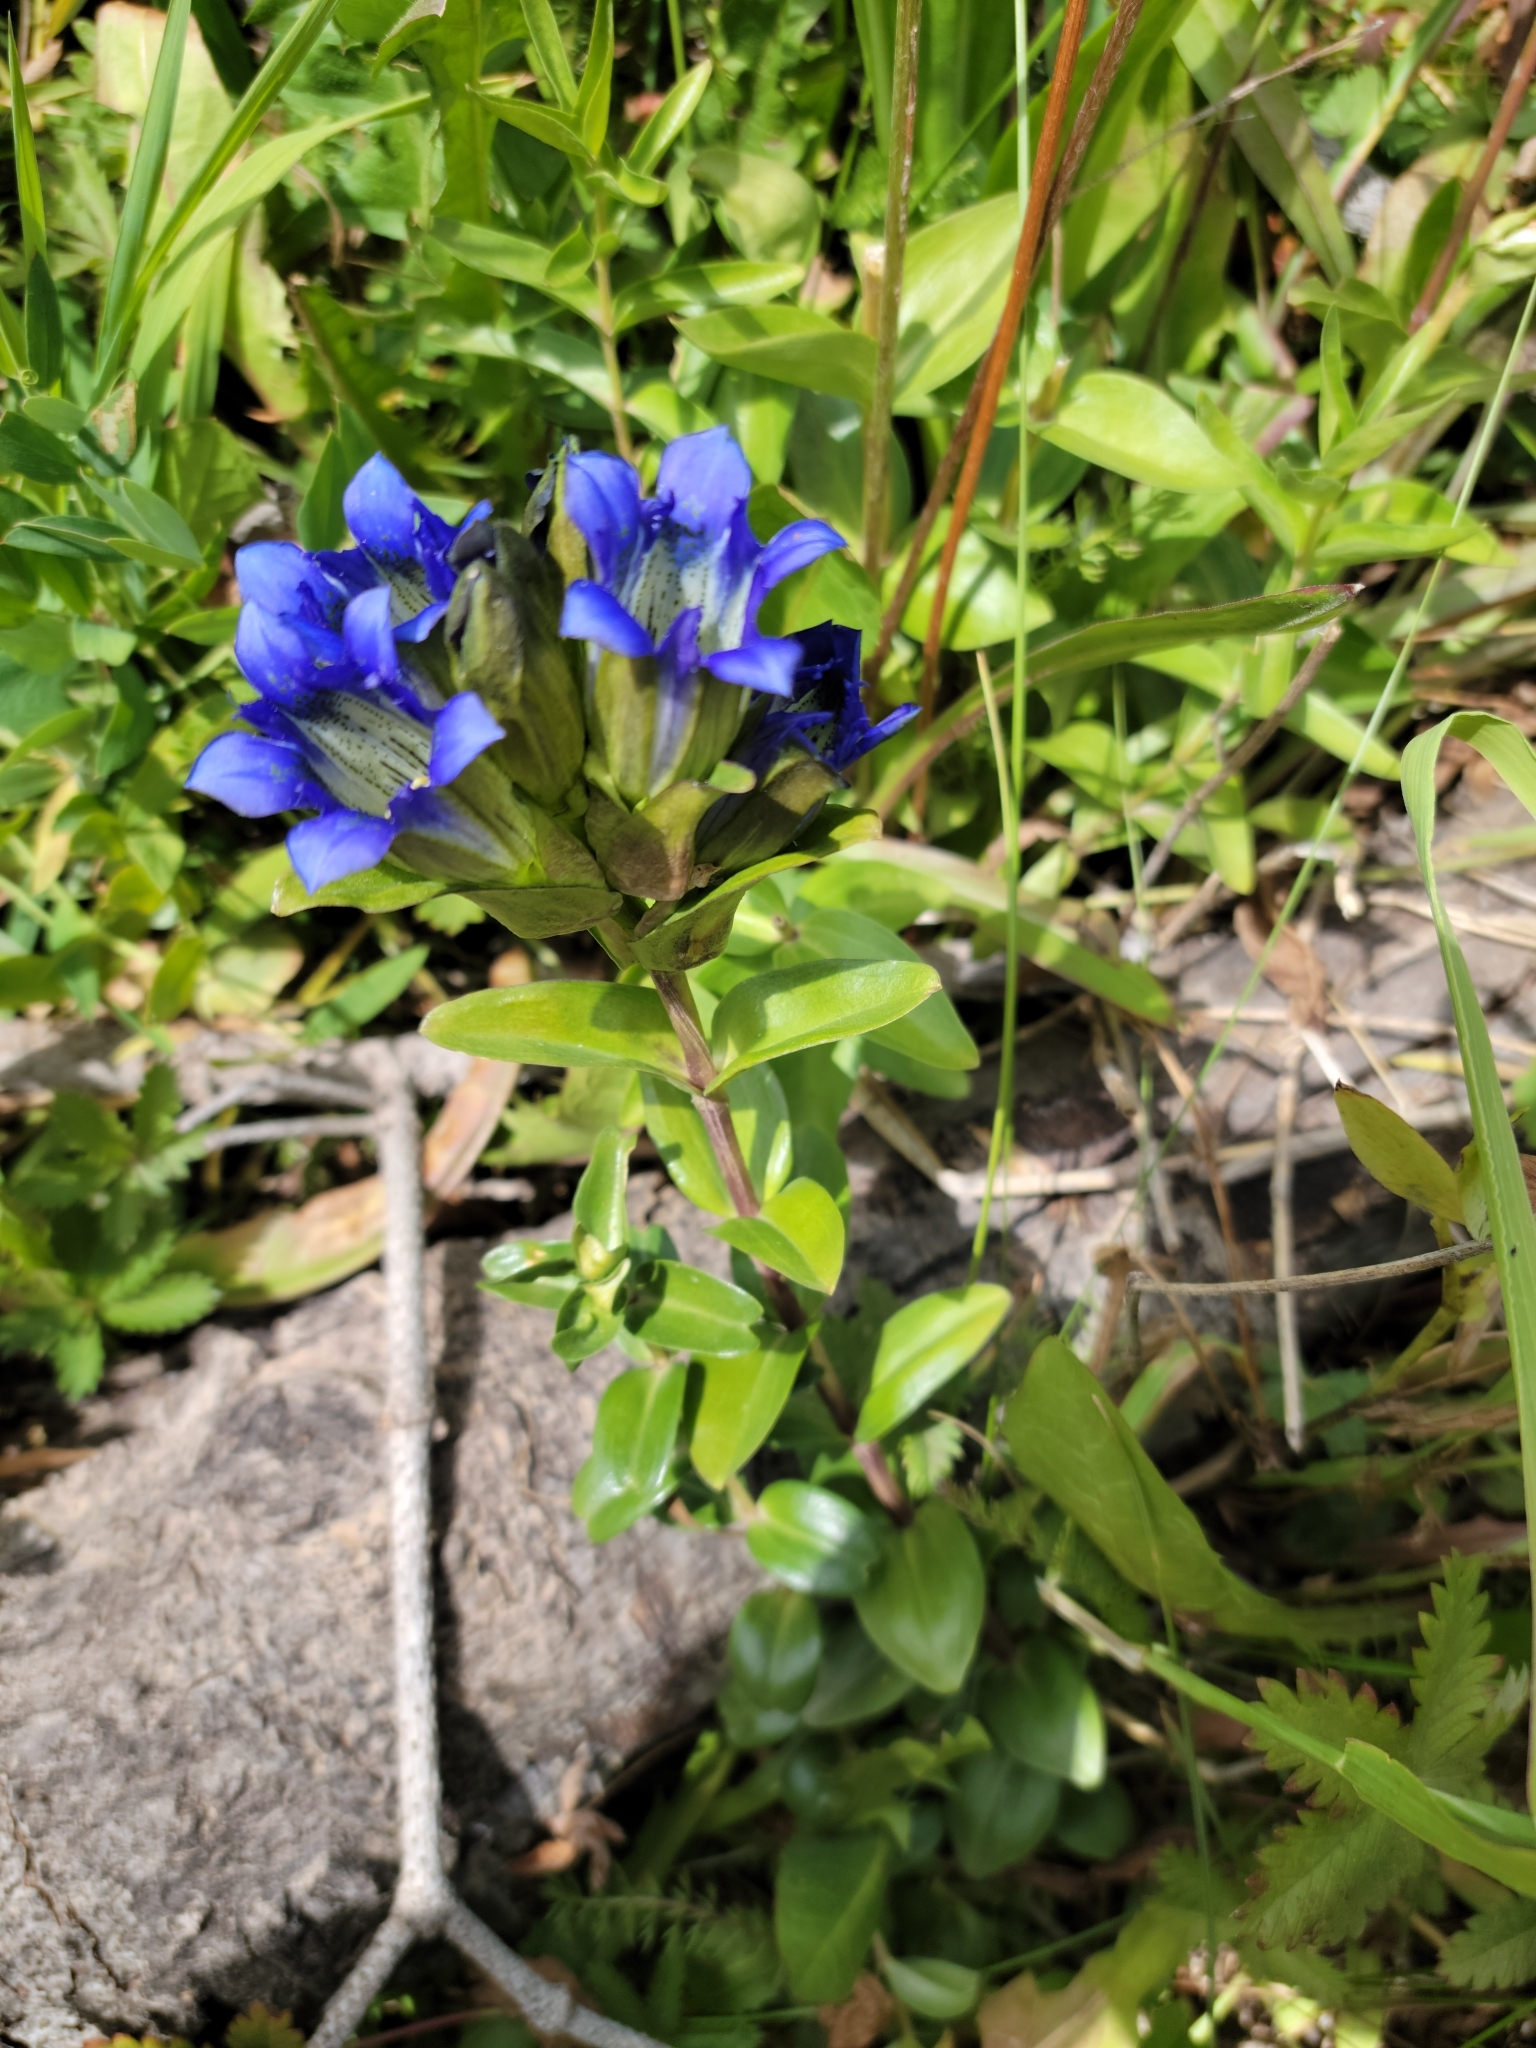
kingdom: Plantae
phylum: Tracheophyta
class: Magnoliopsida
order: Gentianales
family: Gentianaceae
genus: Gentiana
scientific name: Gentiana parryi
